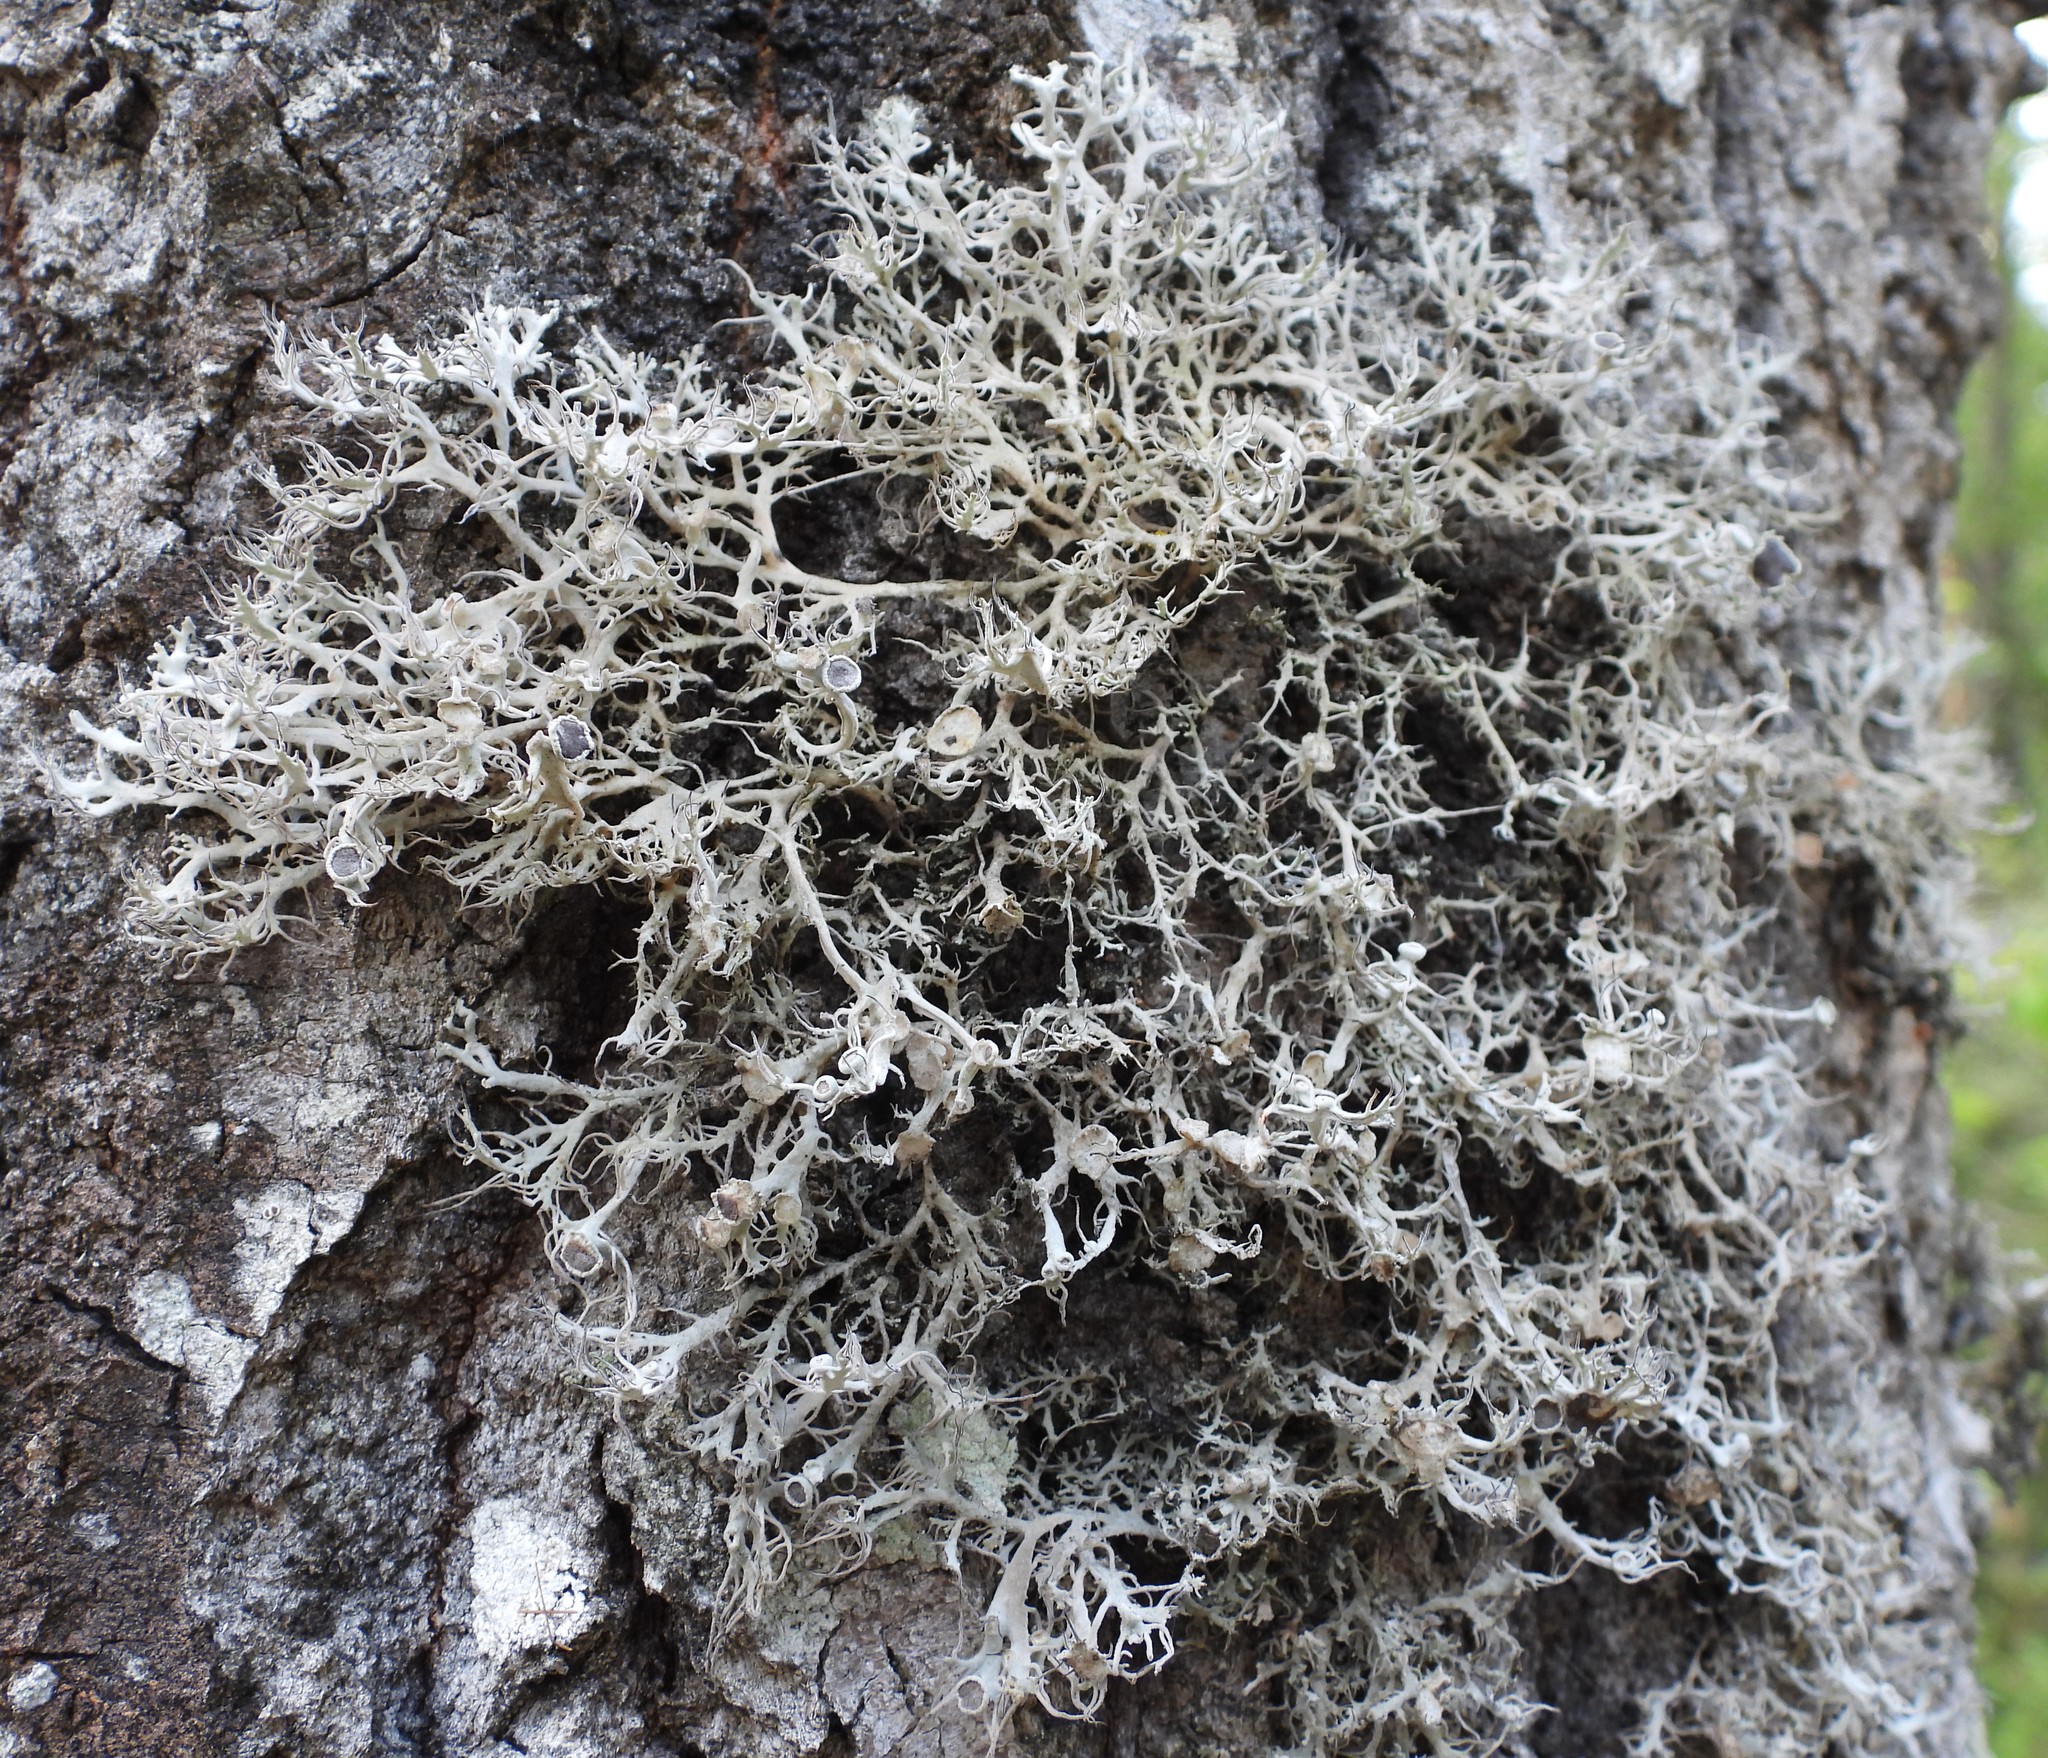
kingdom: Fungi
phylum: Ascomycota
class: Lecanoromycetes
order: Caliciales
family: Physciaceae
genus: Anaptychia
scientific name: Anaptychia ciliaris
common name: Great ciliated lichen
